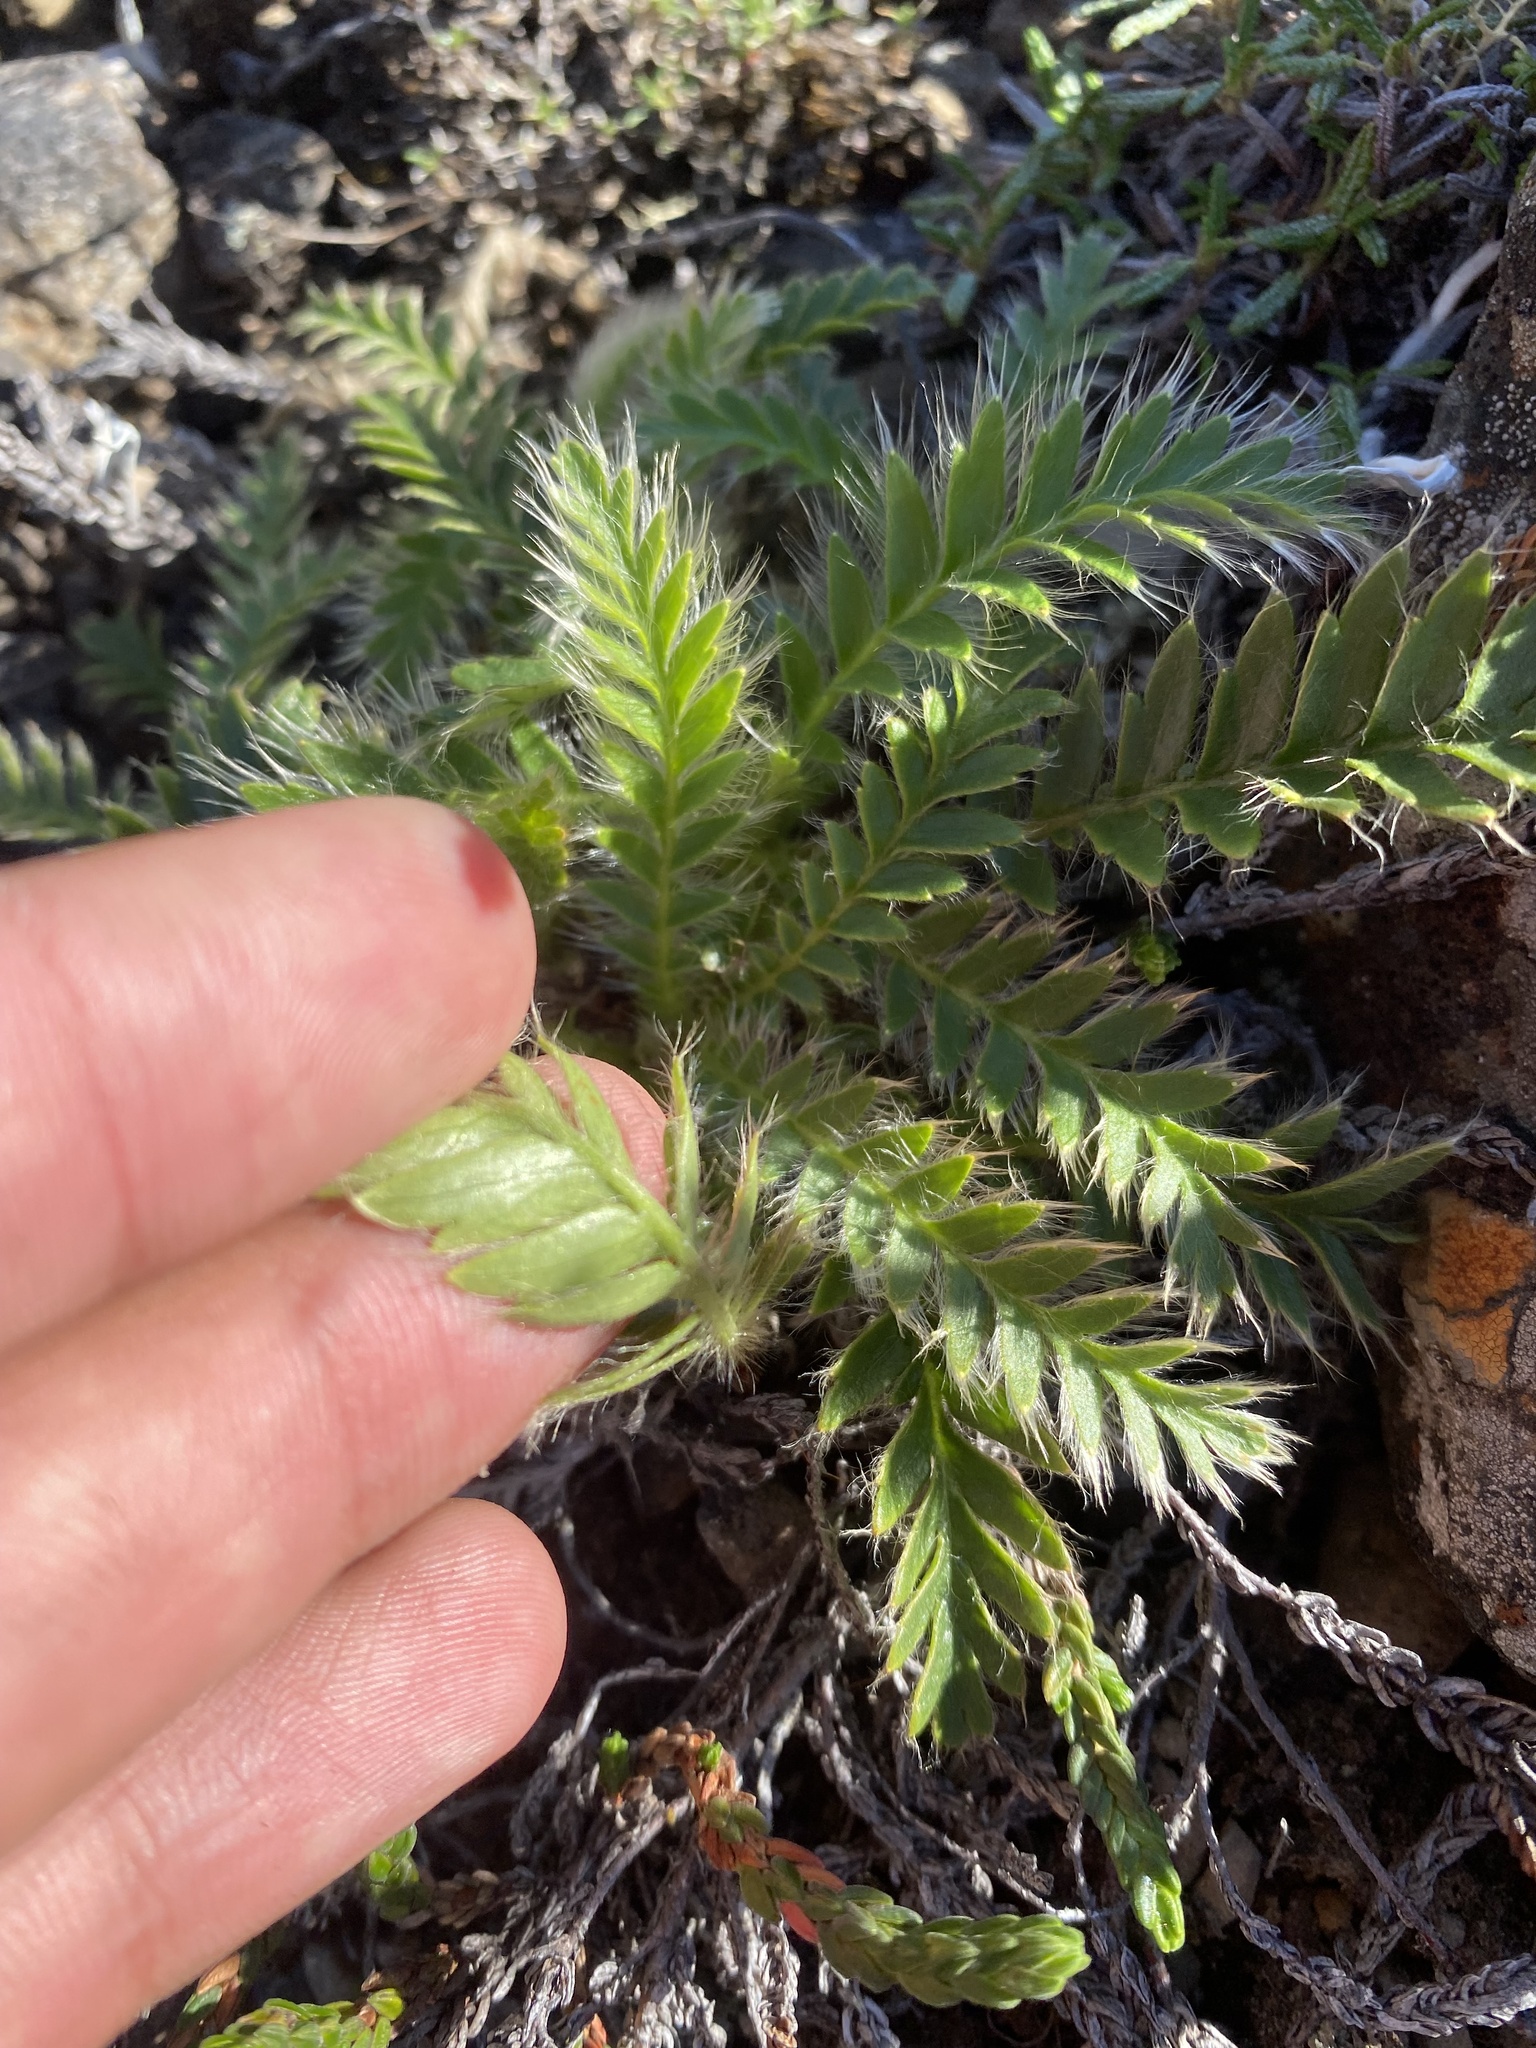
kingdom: Plantae
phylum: Tracheophyta
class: Magnoliopsida
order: Rosales
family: Rosaceae
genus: Geum
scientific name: Geum glaciale
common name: Glacier avens
